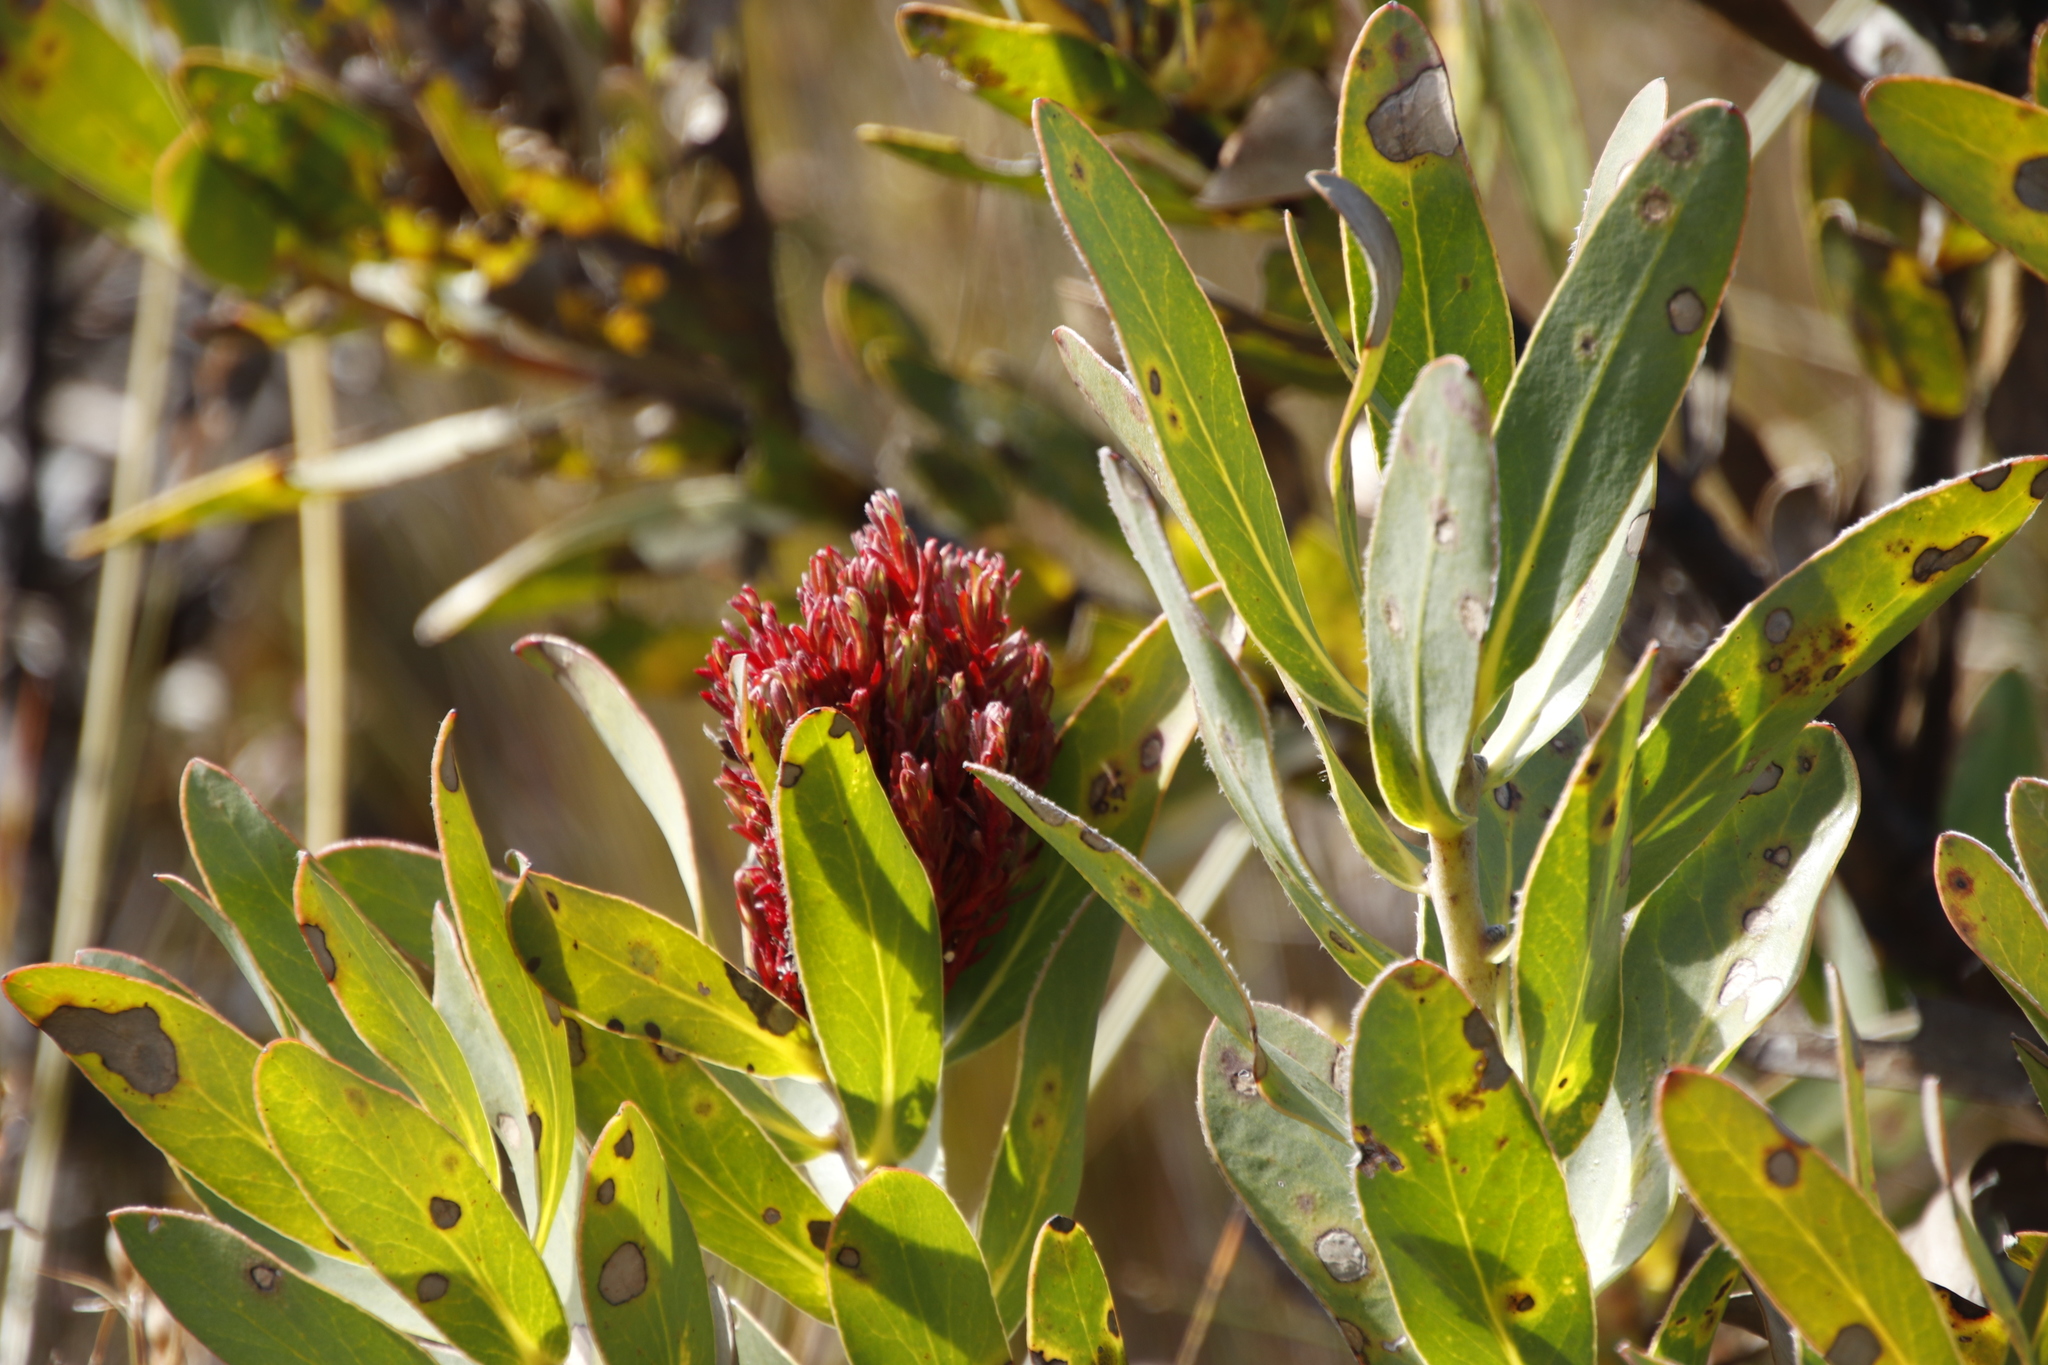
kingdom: Bacteria
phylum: Firmicutes
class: Bacilli
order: Acholeplasmatales
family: Acholeplasmataceae
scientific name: Acholeplasmataceae
